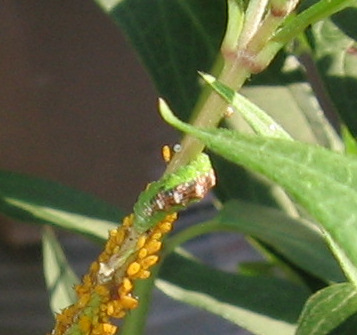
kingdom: Animalia
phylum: Arthropoda
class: Insecta
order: Diptera
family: Syrphidae
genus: Eupeodes
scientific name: Eupeodes pomus
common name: Short-tailed aphideater
